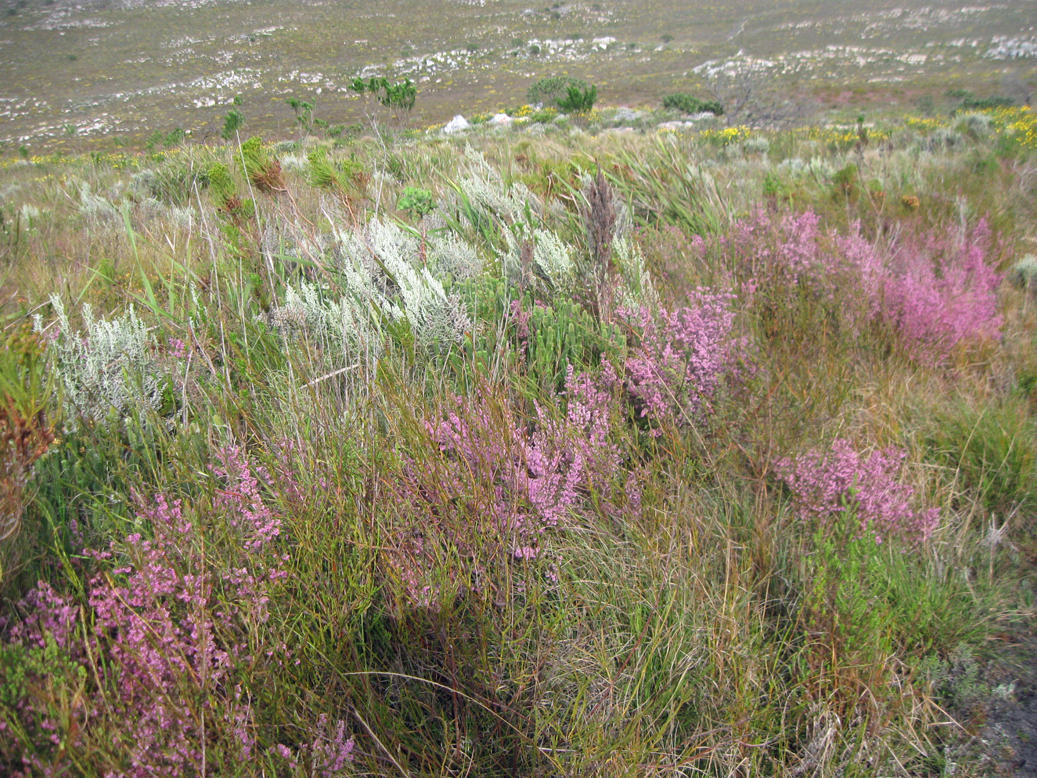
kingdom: Plantae
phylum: Tracheophyta
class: Magnoliopsida
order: Ericales
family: Ericaceae
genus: Erica
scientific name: Erica parviflora
